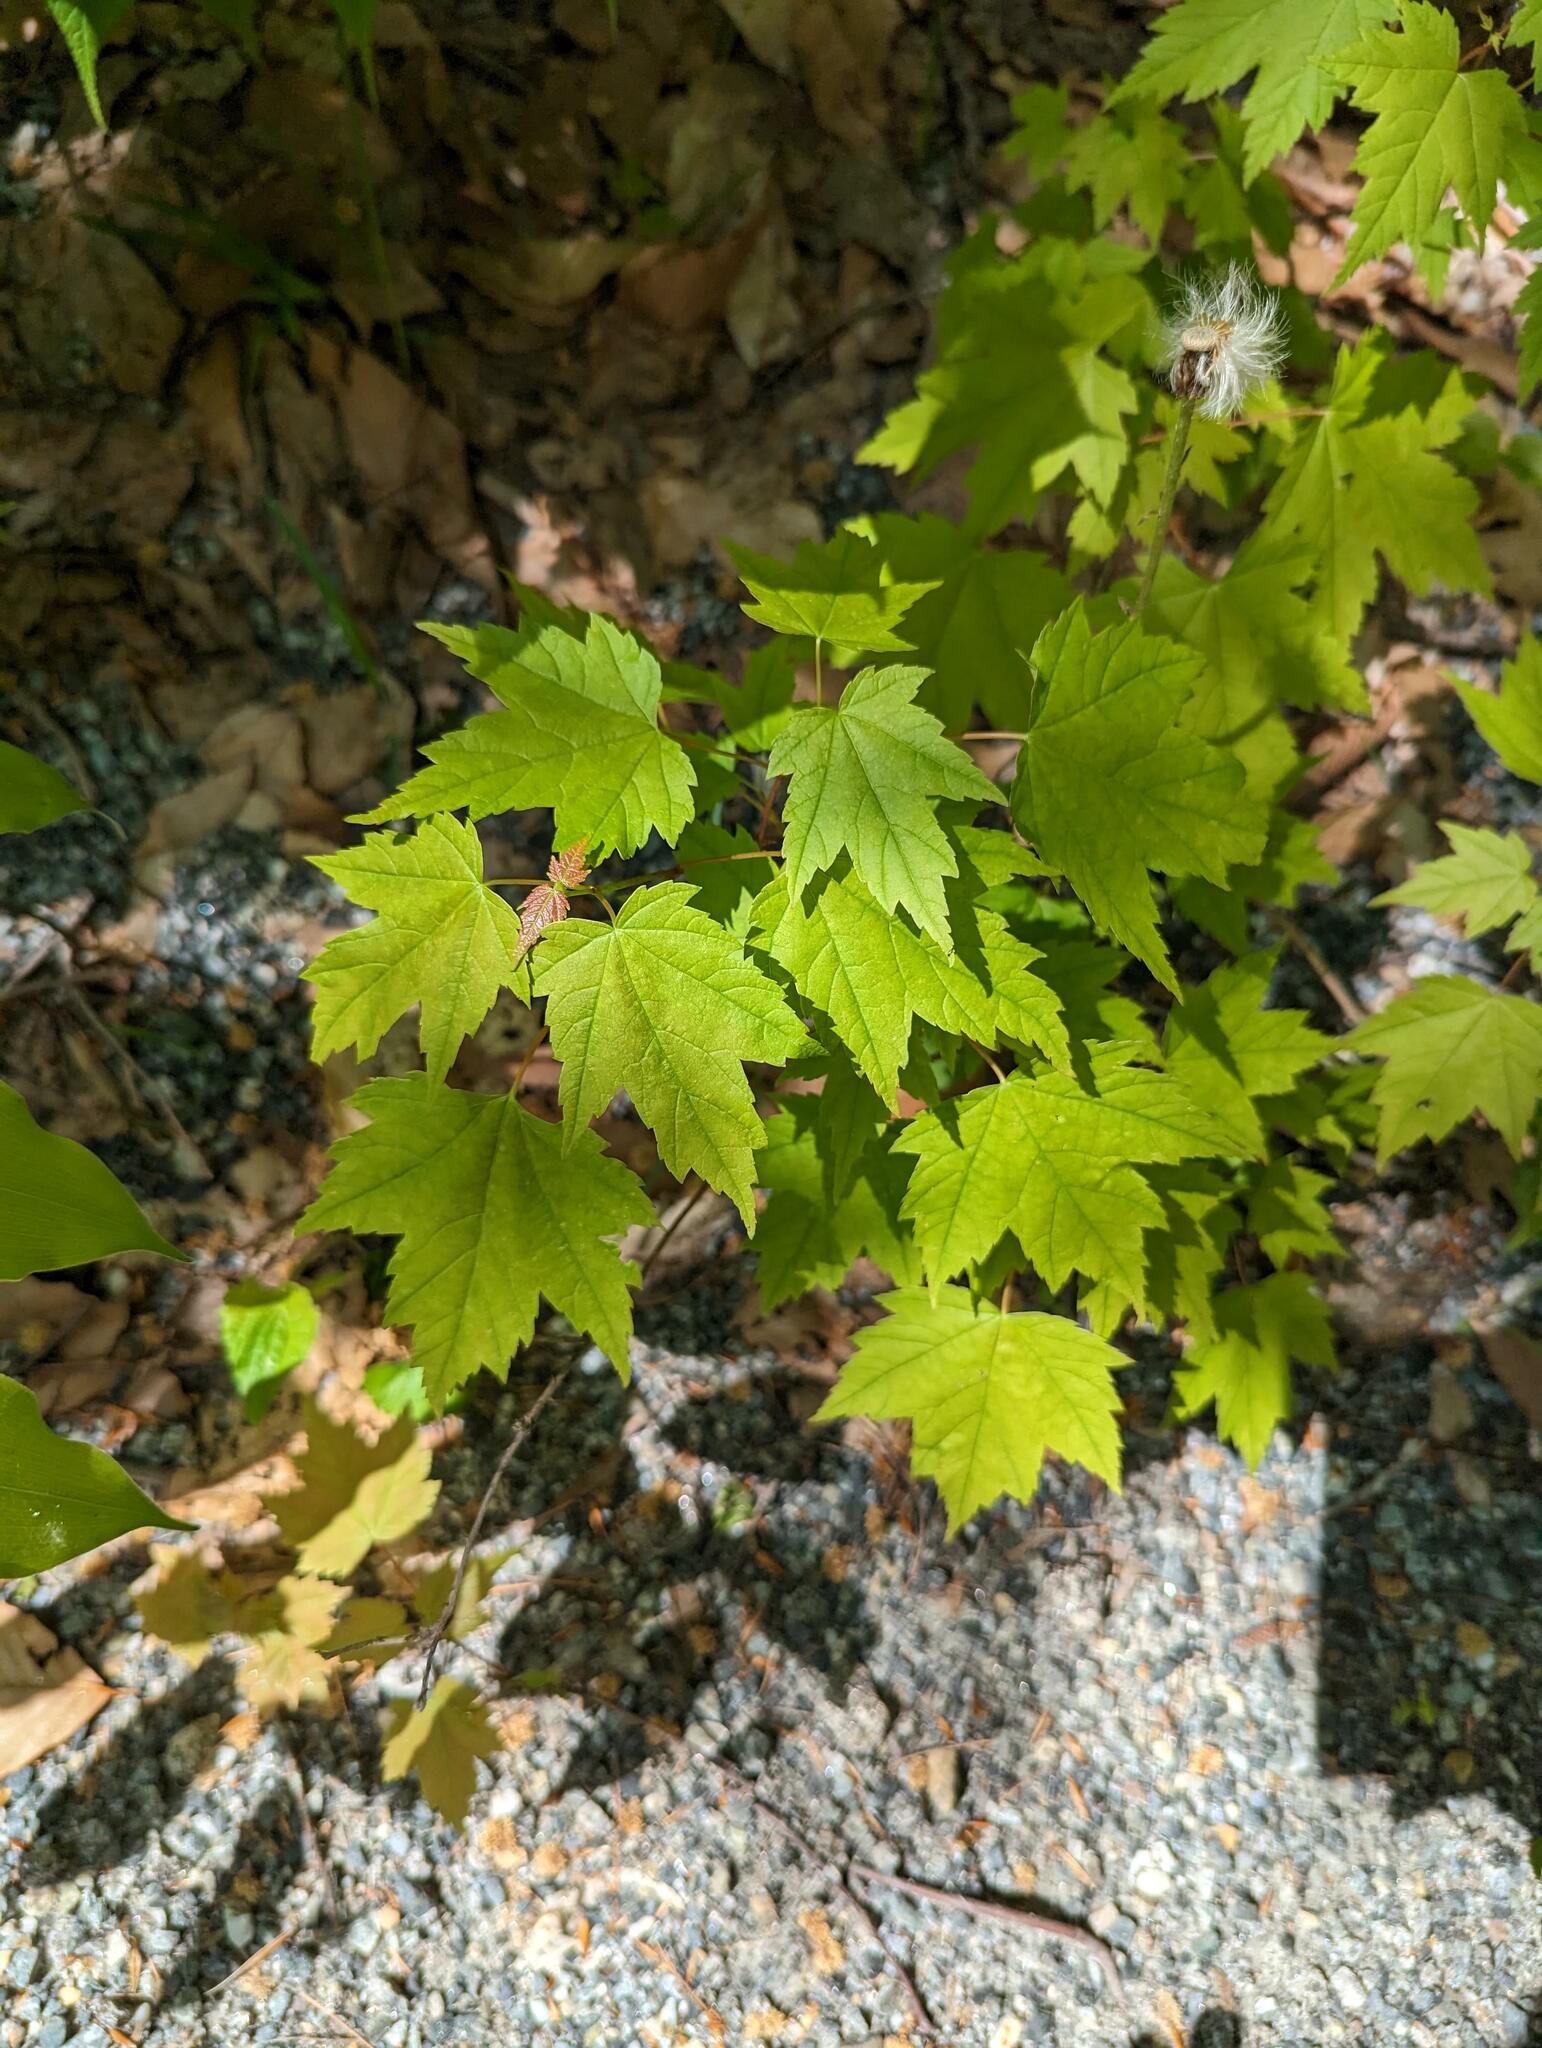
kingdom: Plantae
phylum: Tracheophyta
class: Magnoliopsida
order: Sapindales
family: Sapindaceae
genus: Acer
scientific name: Acer rubrum
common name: Red maple
